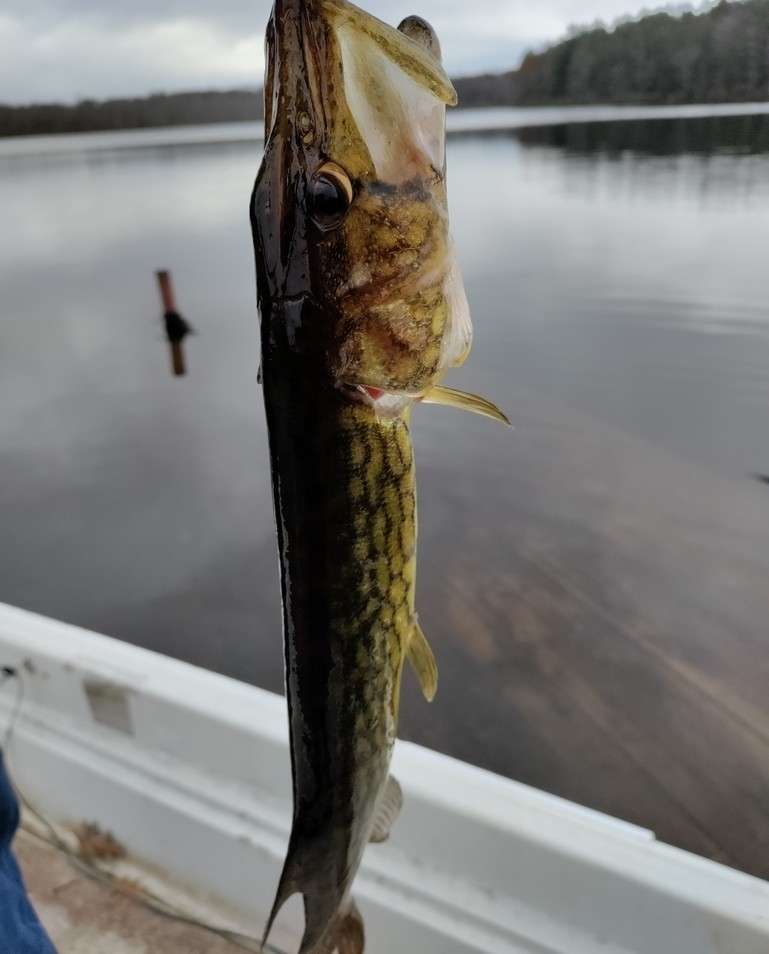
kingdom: Animalia
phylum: Chordata
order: Esociformes
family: Esocidae
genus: Esox
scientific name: Esox niger
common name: Chain pickerel
